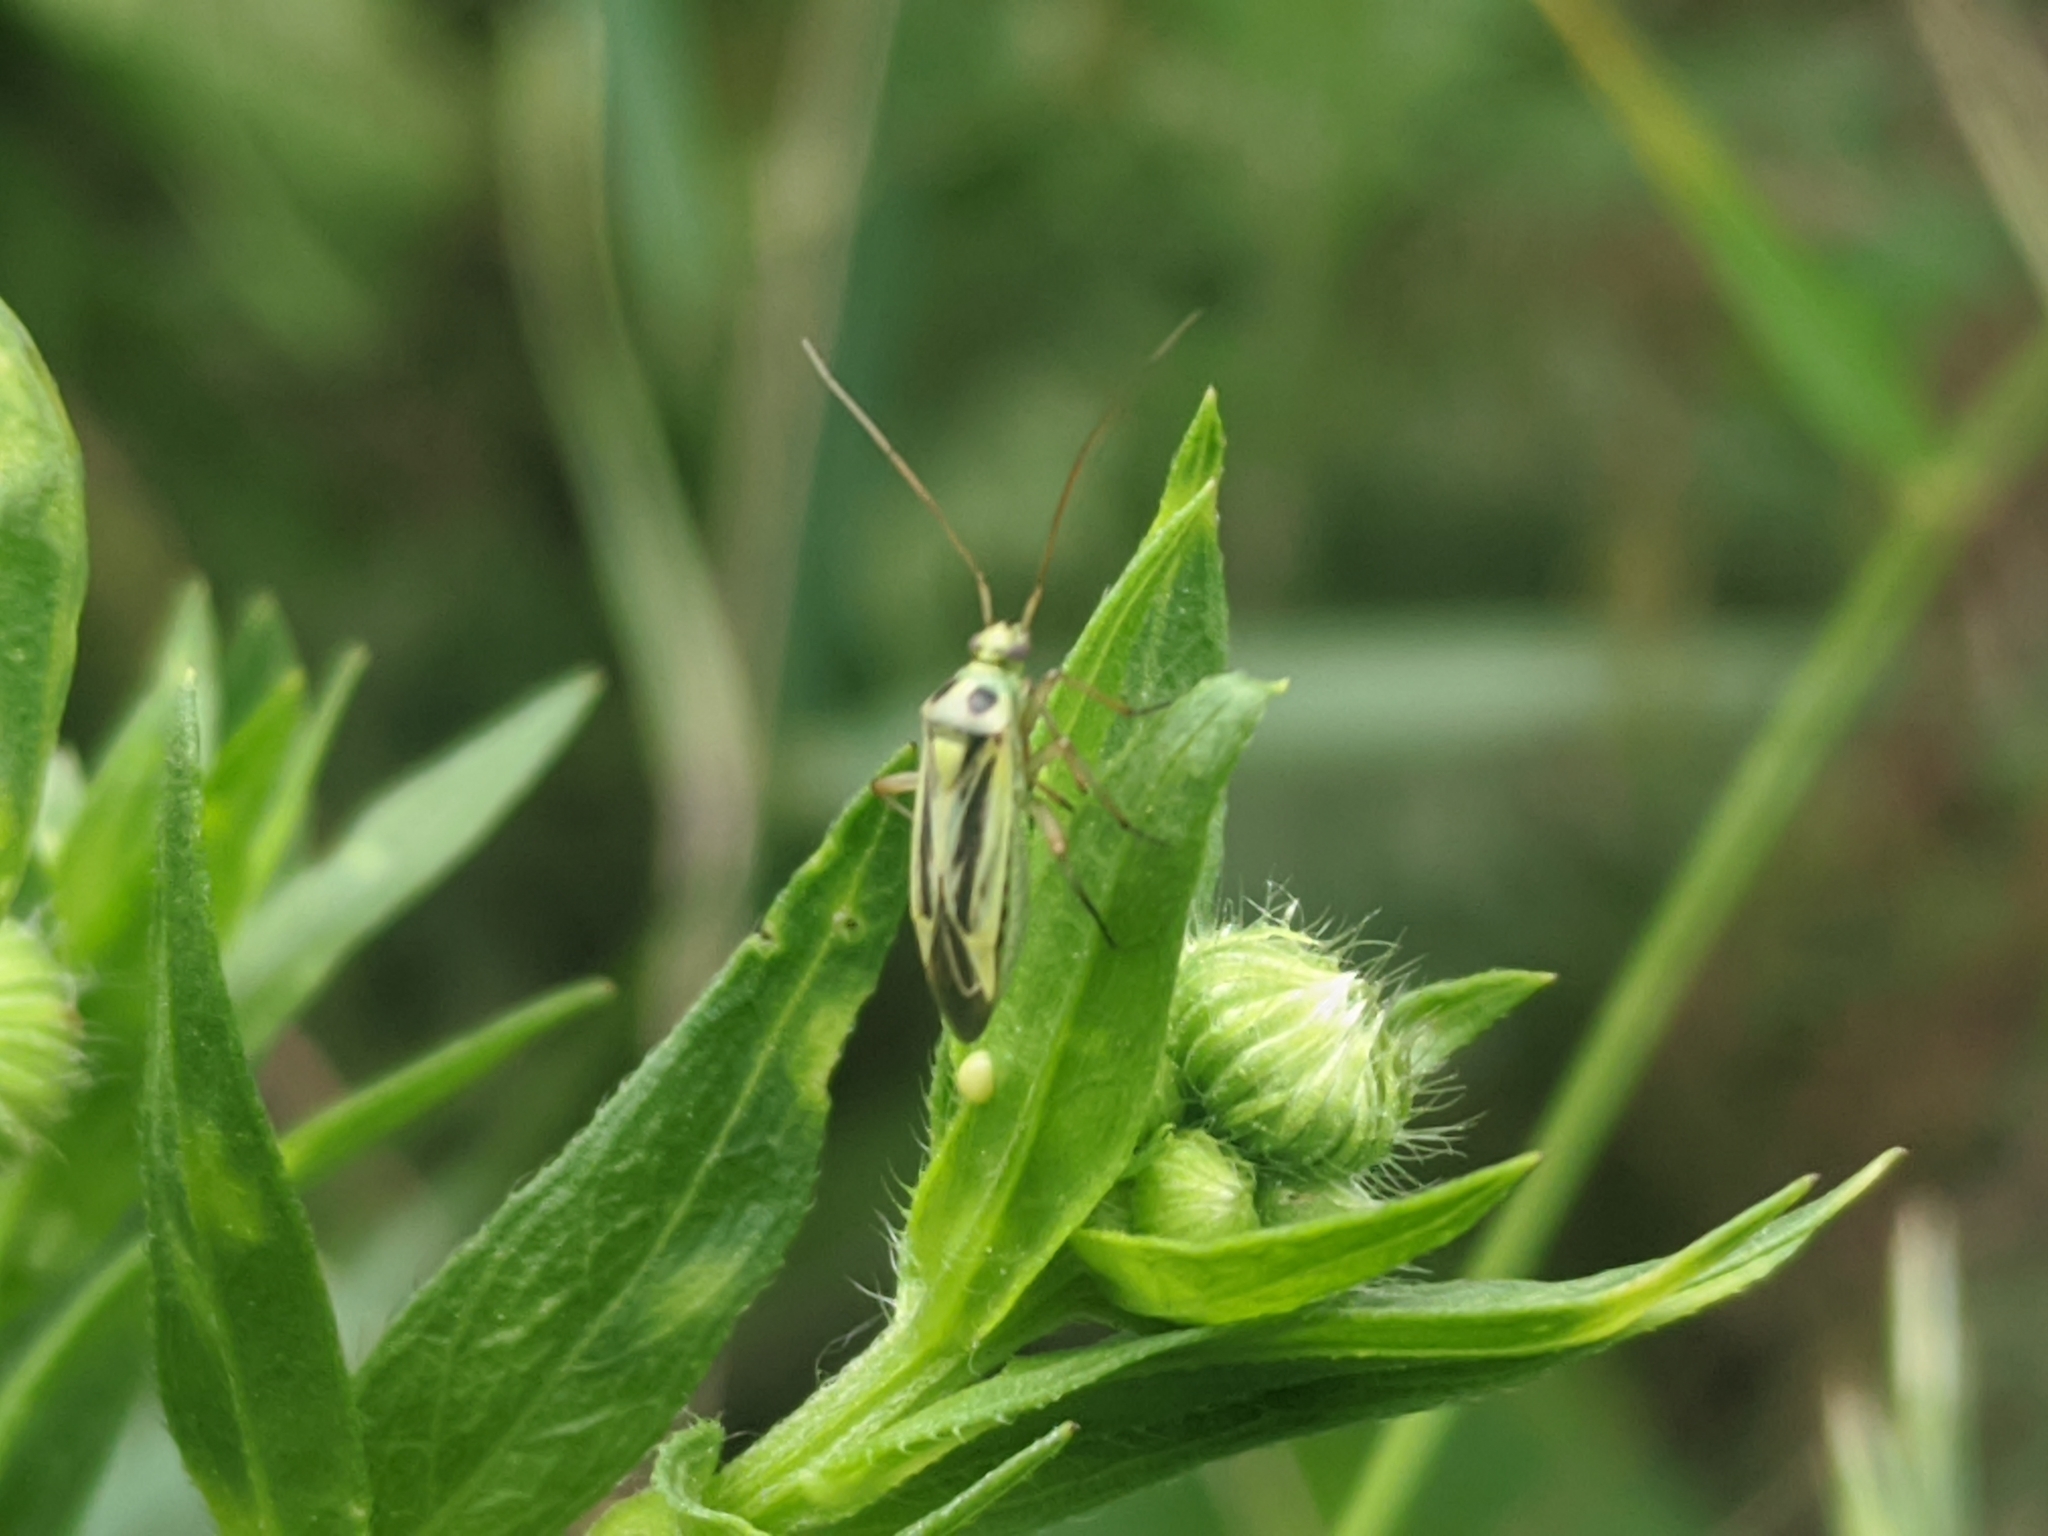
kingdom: Animalia
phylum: Arthropoda
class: Insecta
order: Hemiptera
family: Miridae
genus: Stenotus
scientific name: Stenotus binotatus
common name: Plant bug
